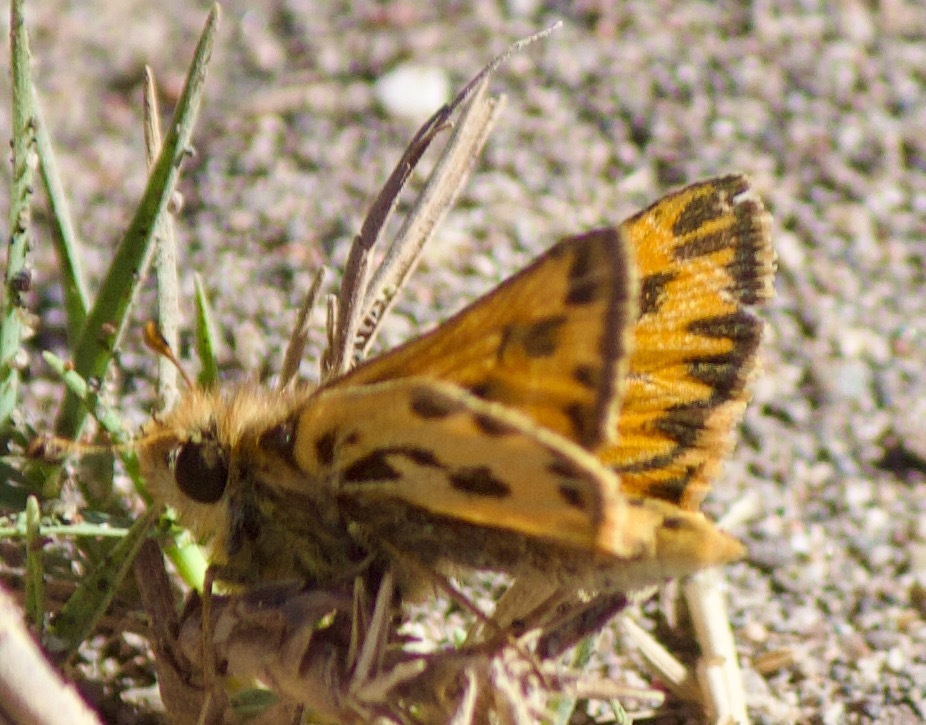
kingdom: Animalia
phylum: Arthropoda
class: Insecta
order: Lepidoptera
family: Hesperiidae
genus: Hylephila
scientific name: Hylephila fasciolata
